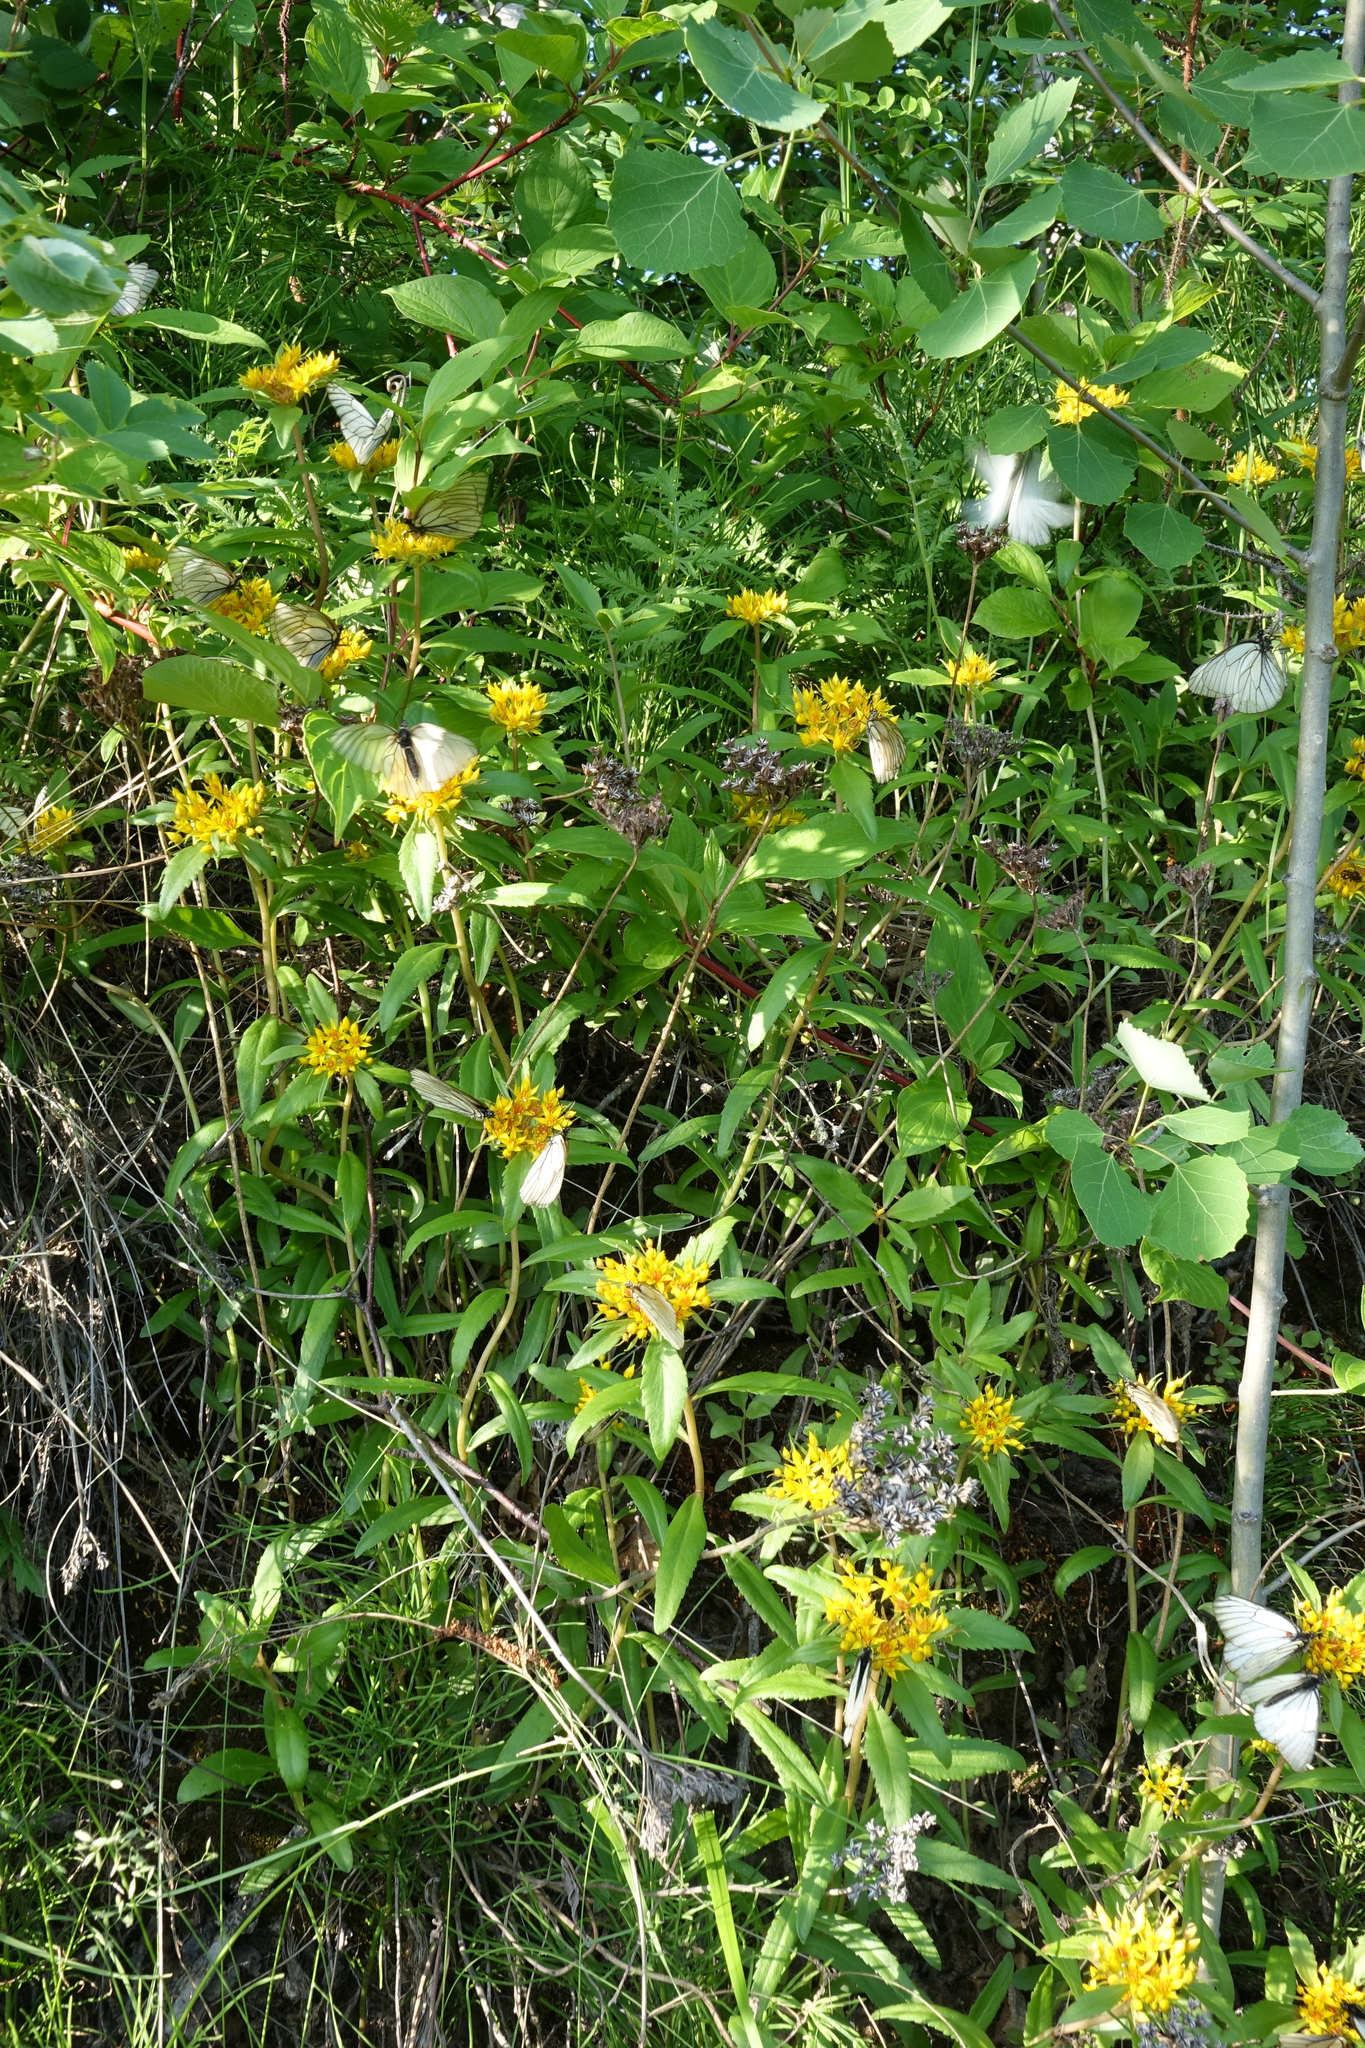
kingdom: Animalia
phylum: Arthropoda
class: Insecta
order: Lepidoptera
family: Pieridae
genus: Aporia
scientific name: Aporia crataegi
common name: Black-veined white
